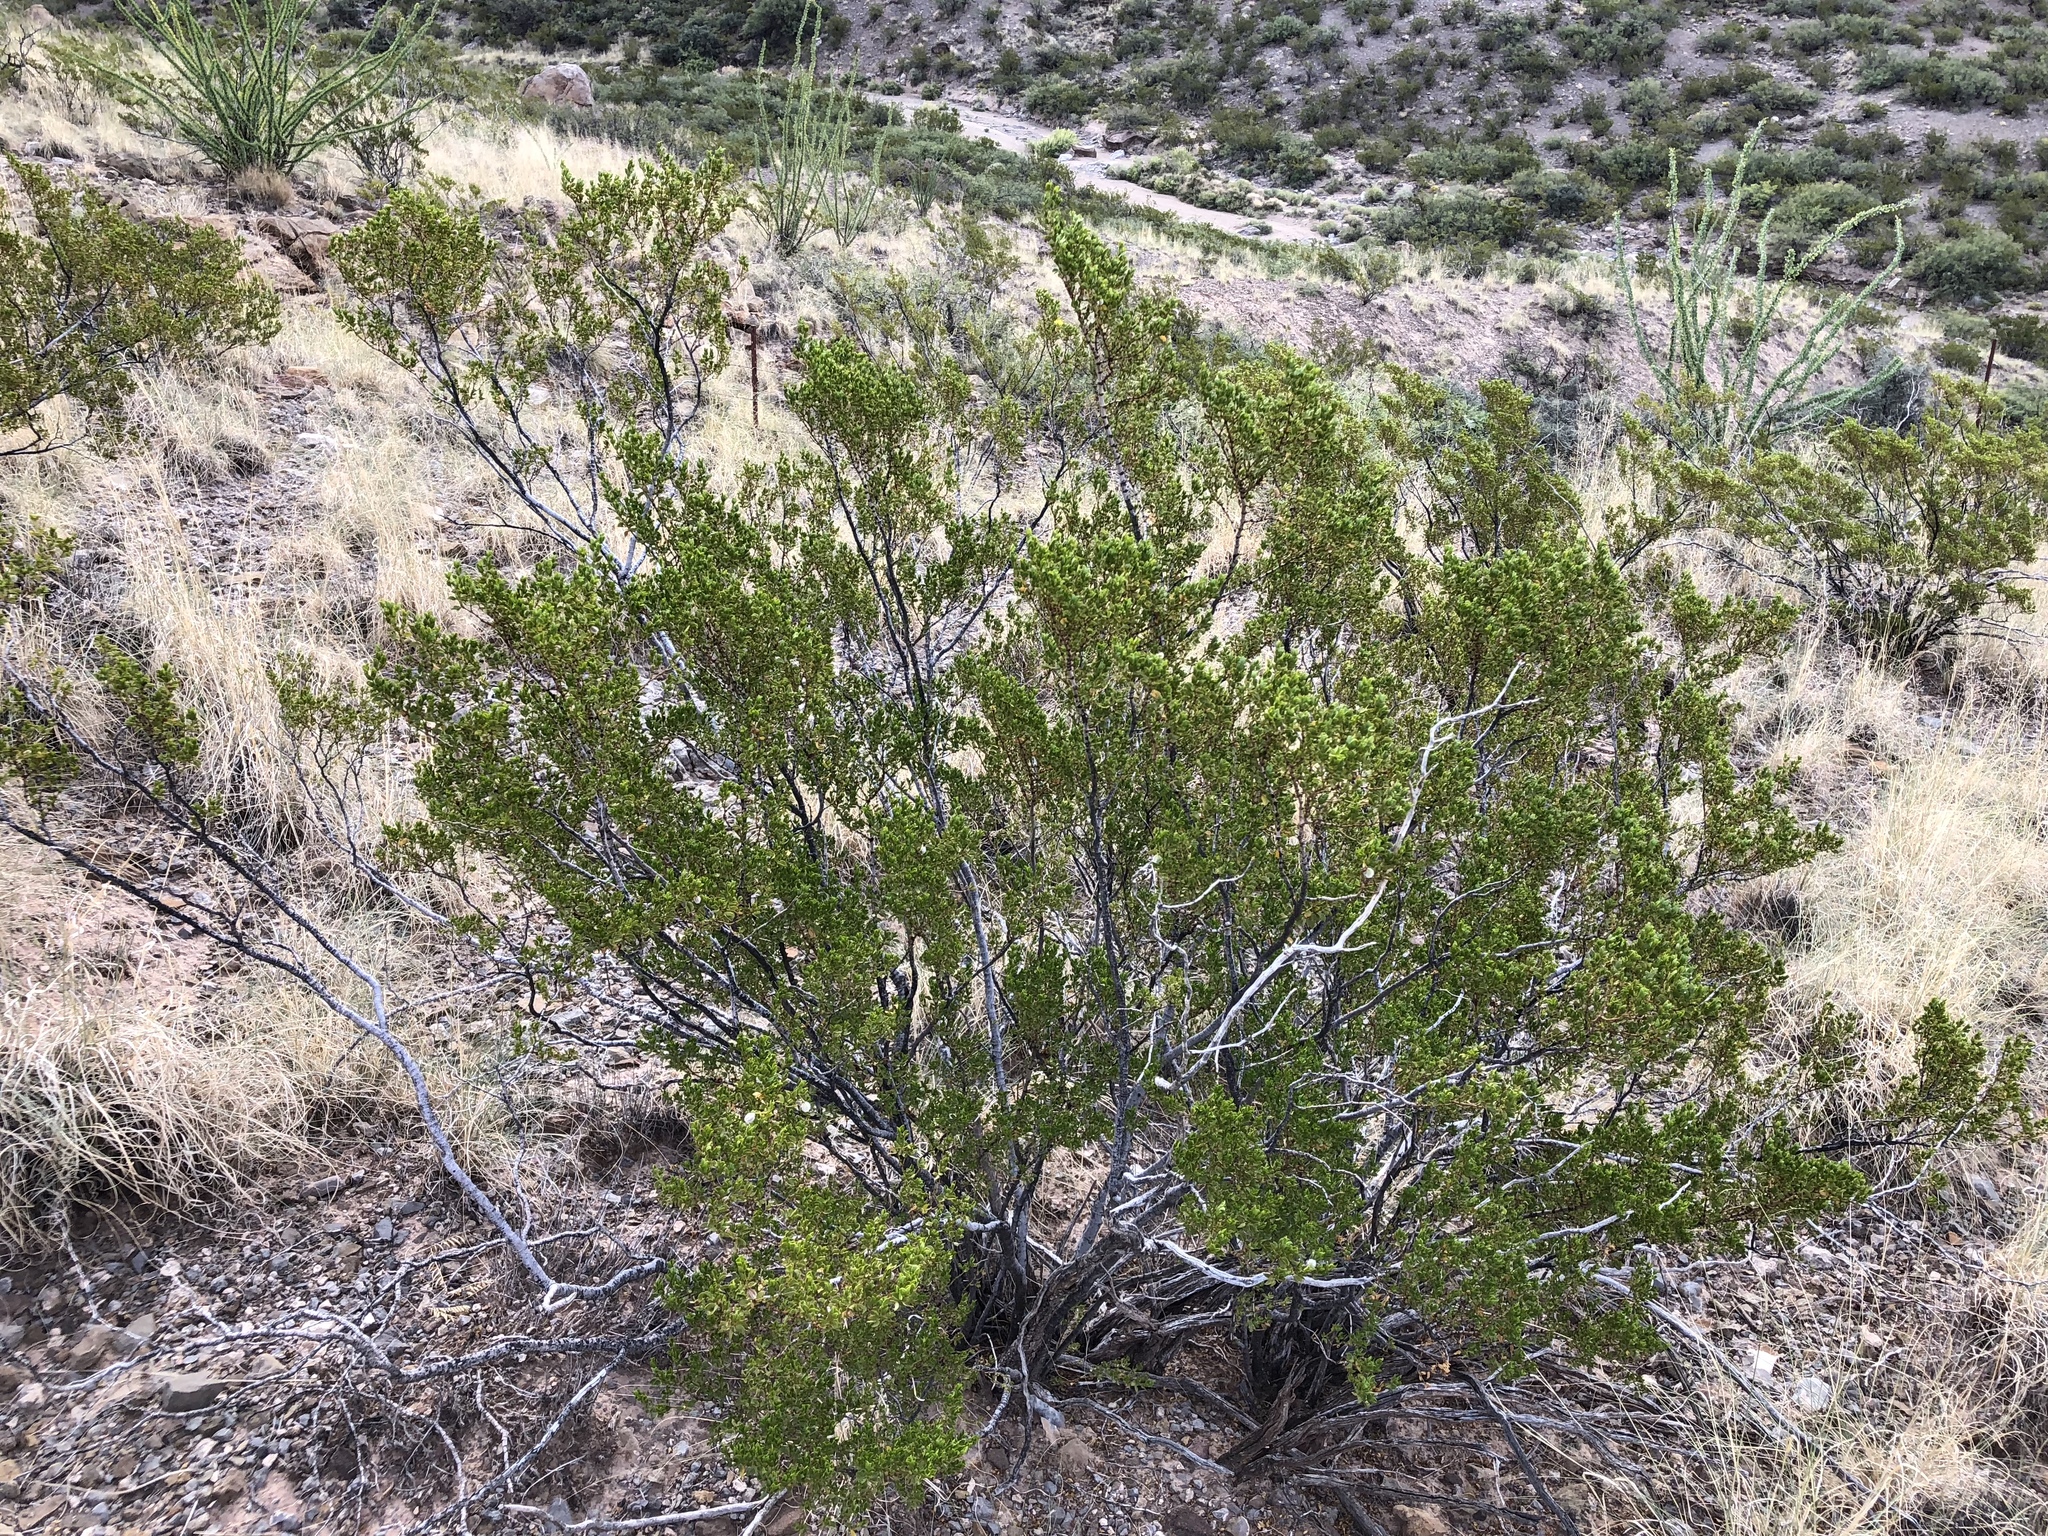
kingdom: Plantae
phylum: Tracheophyta
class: Magnoliopsida
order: Zygophyllales
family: Zygophyllaceae
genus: Larrea
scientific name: Larrea tridentata
